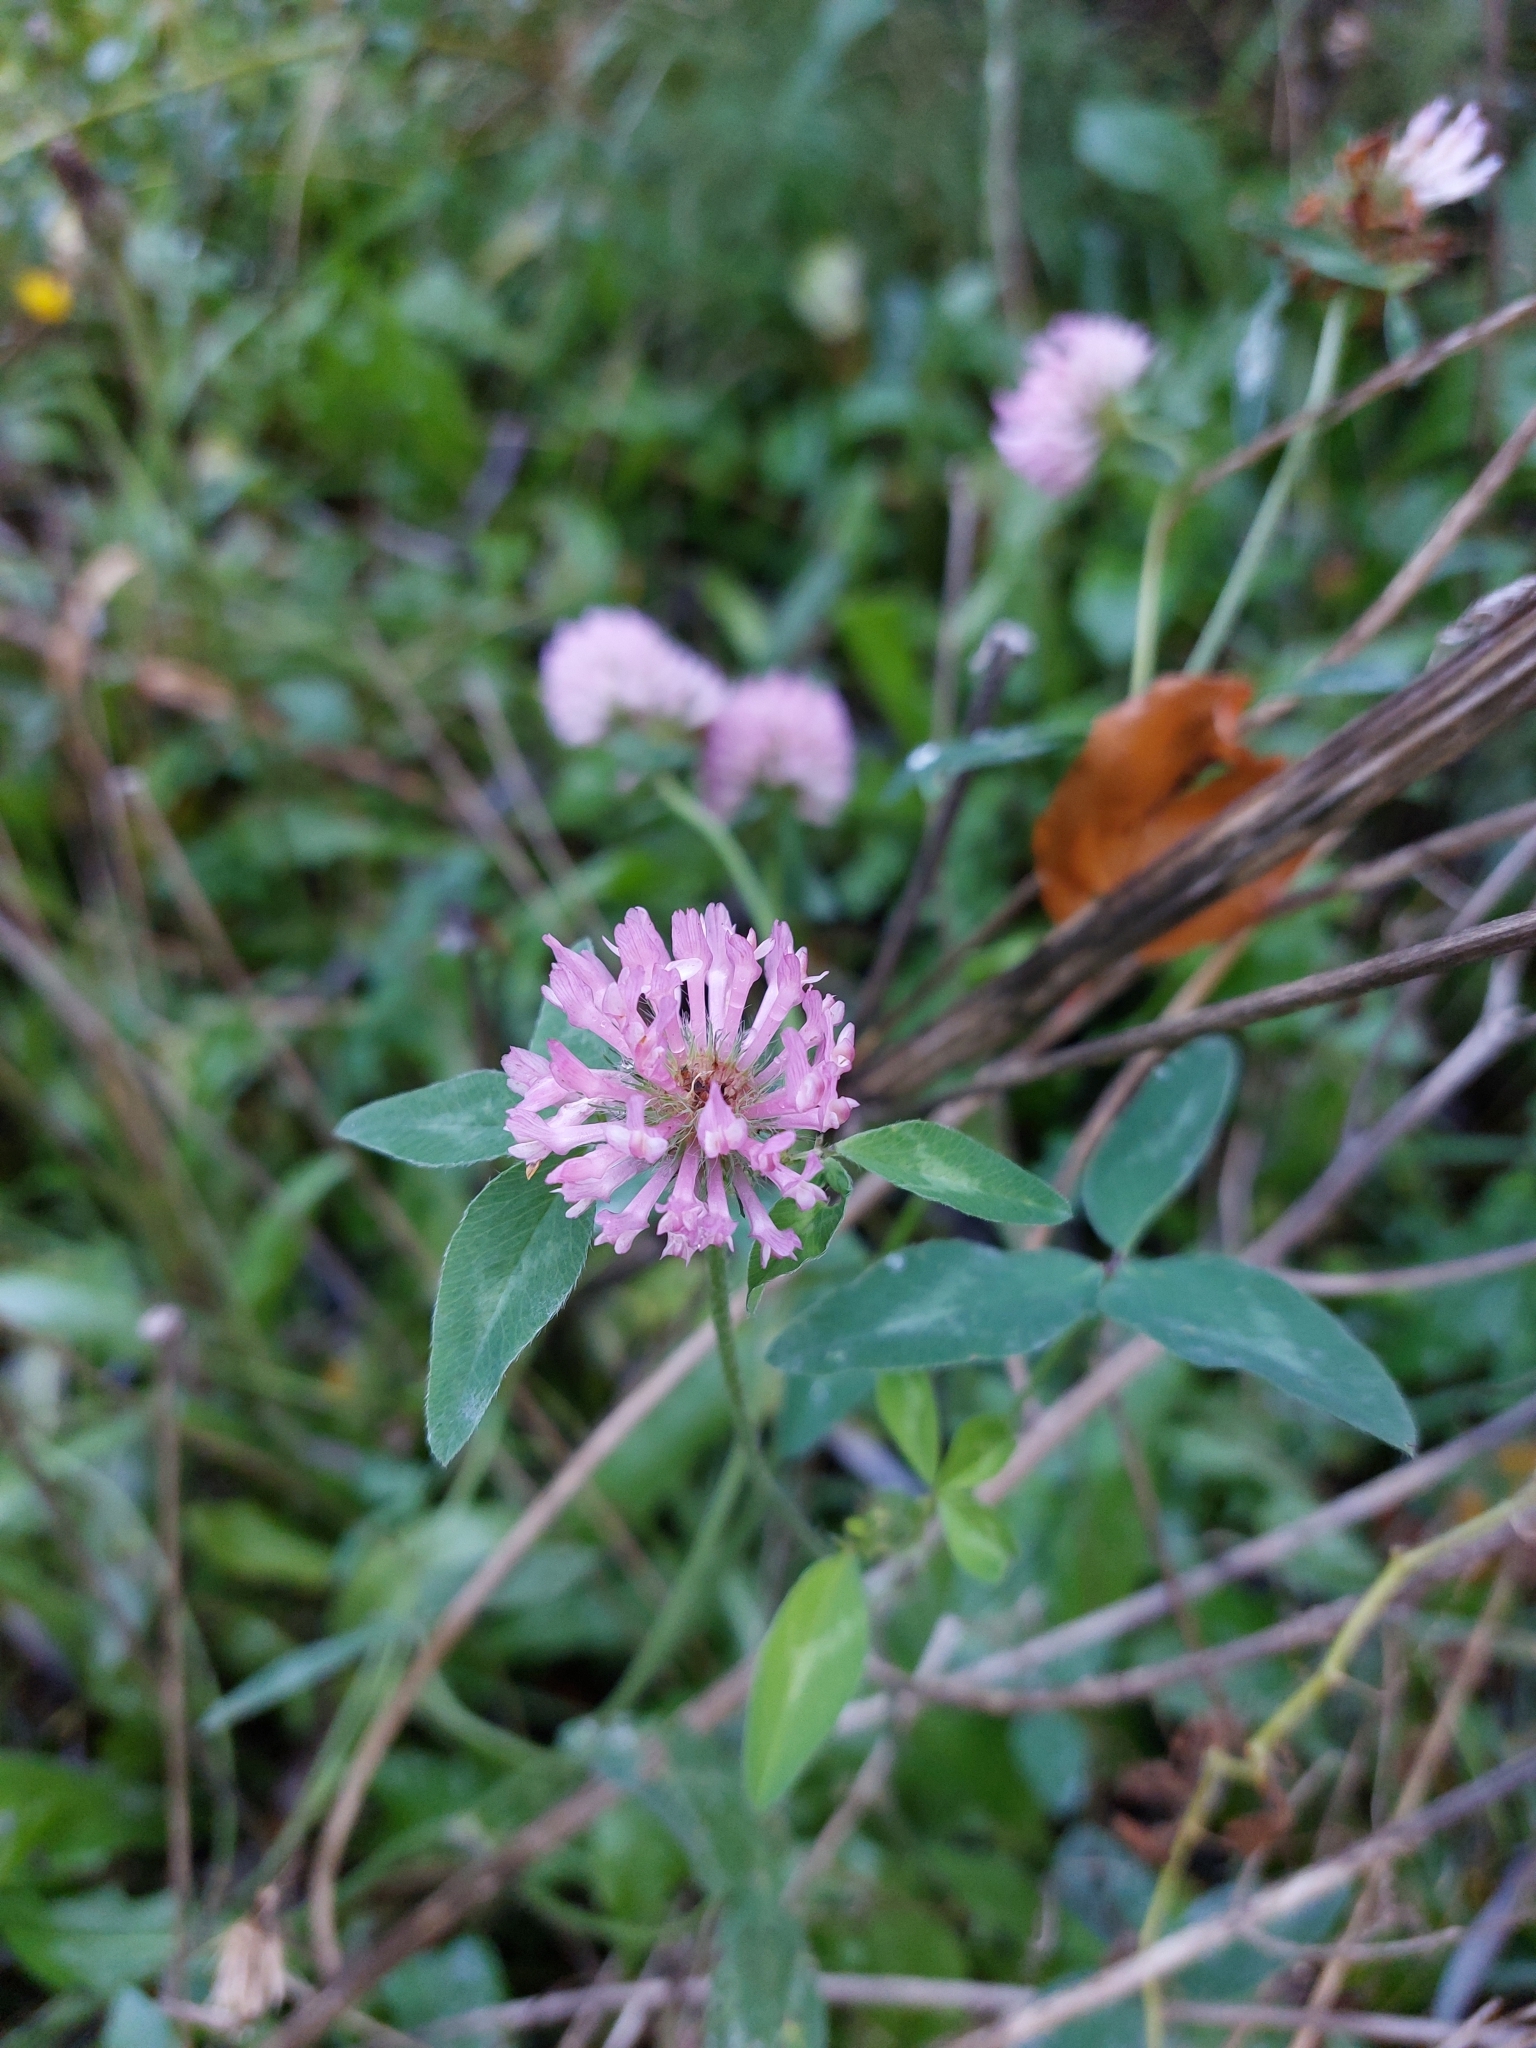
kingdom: Plantae
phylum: Tracheophyta
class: Magnoliopsida
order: Fabales
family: Fabaceae
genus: Trifolium
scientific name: Trifolium pratense
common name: Red clover
